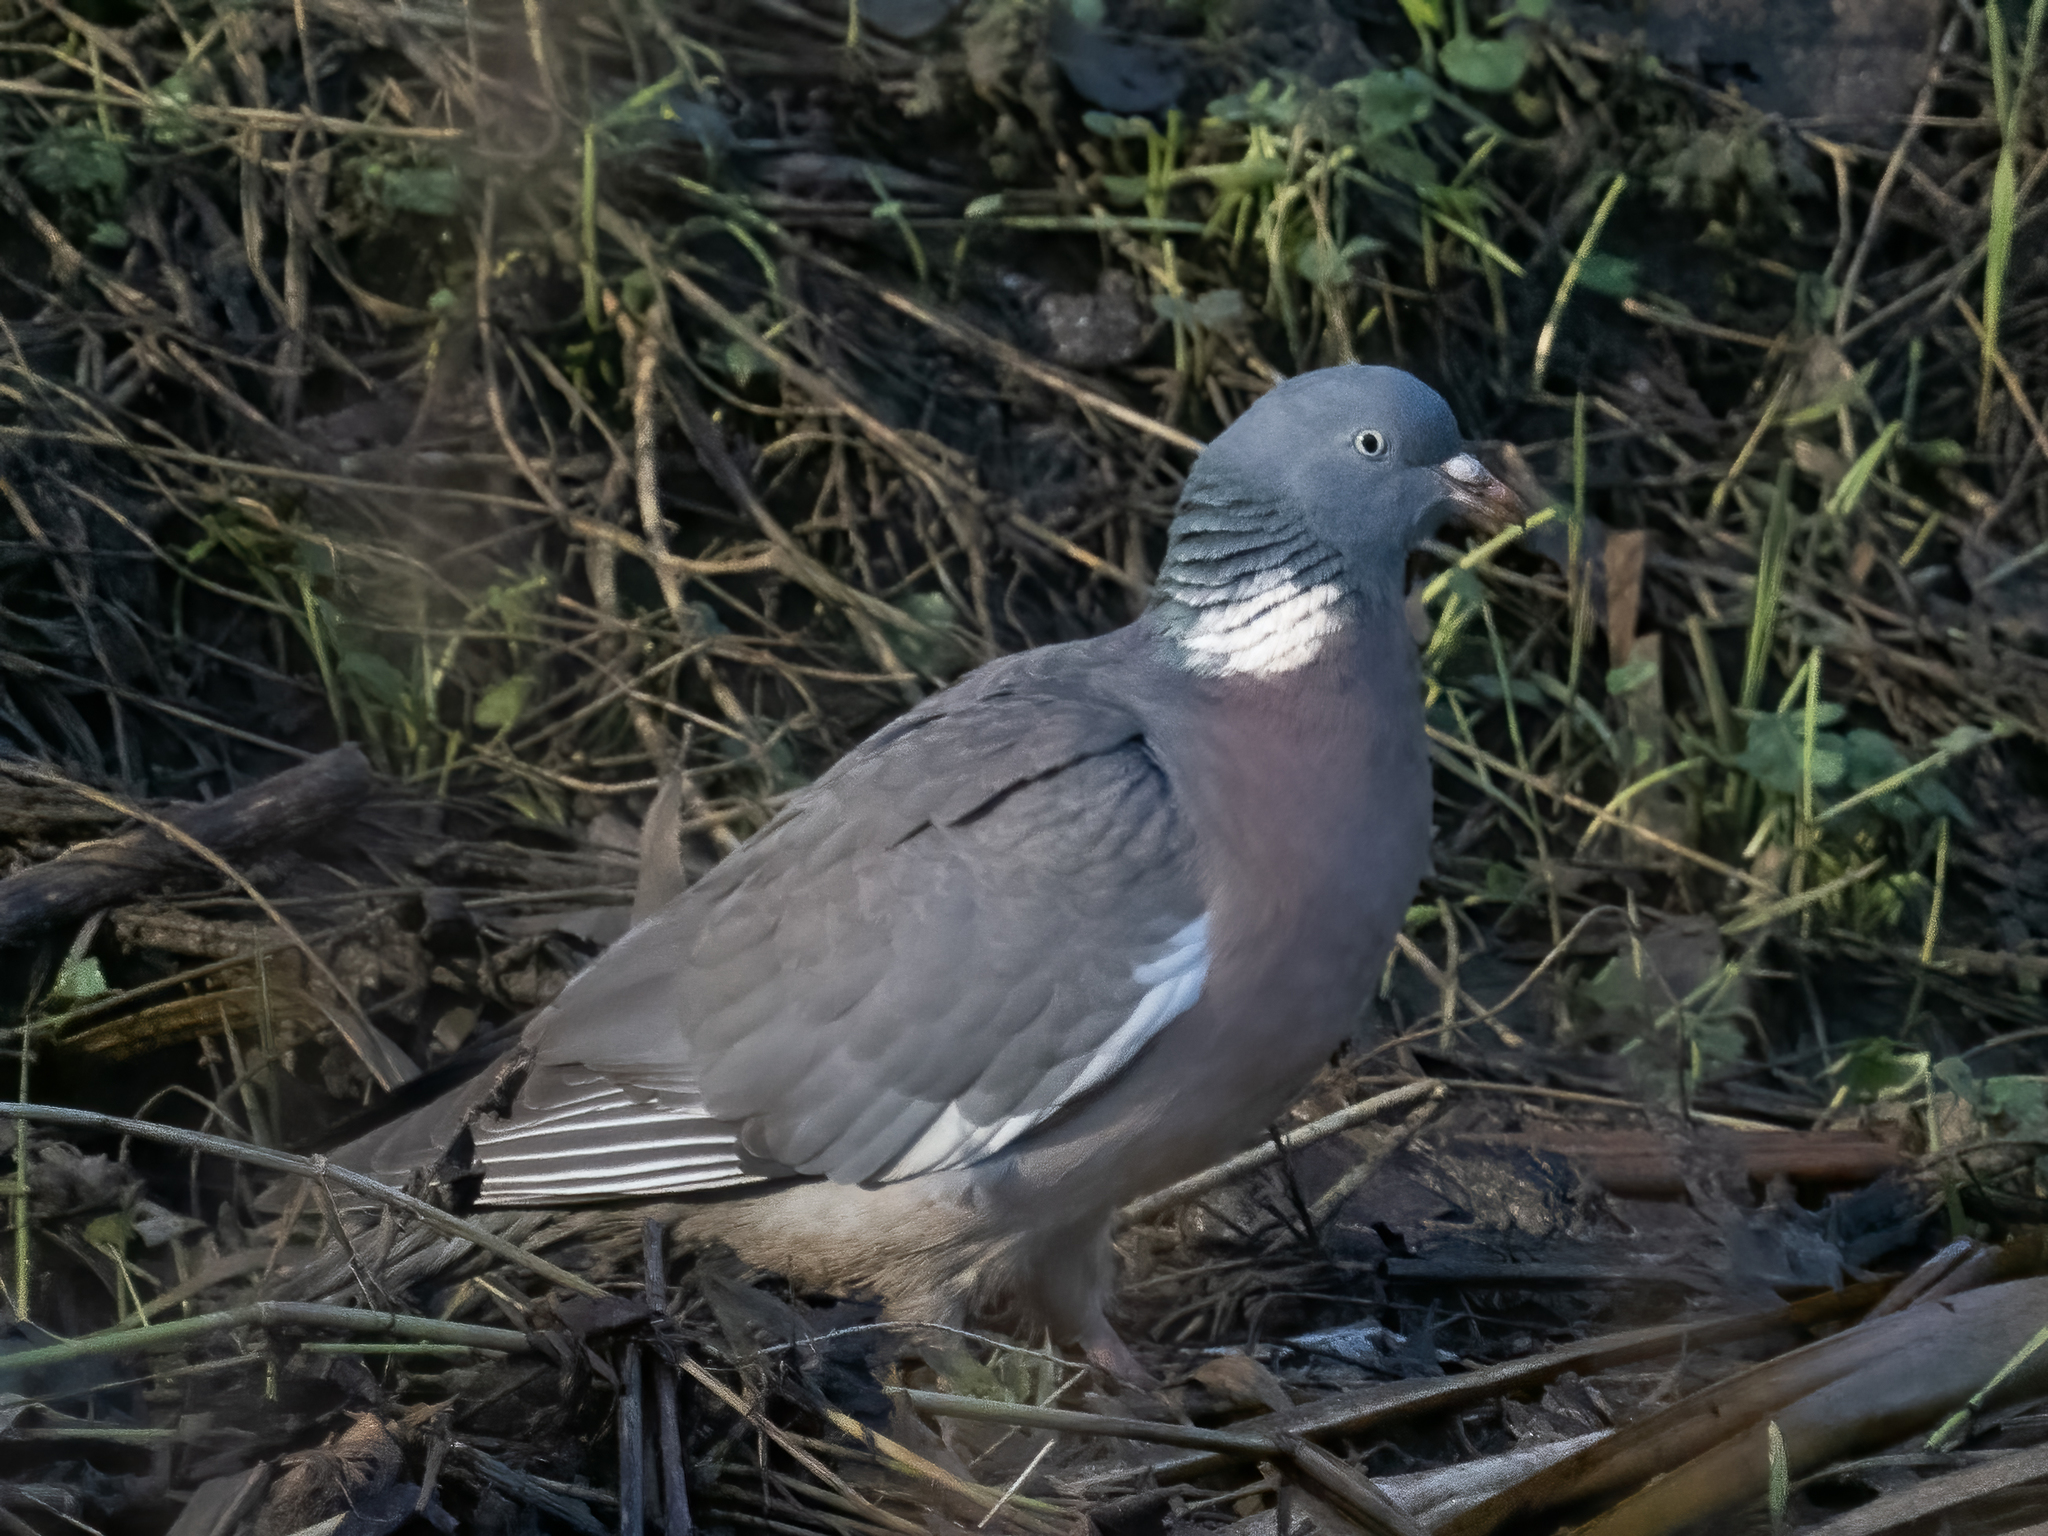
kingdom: Animalia
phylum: Chordata
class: Aves
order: Columbiformes
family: Columbidae
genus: Columba
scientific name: Columba palumbus
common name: Common wood pigeon
